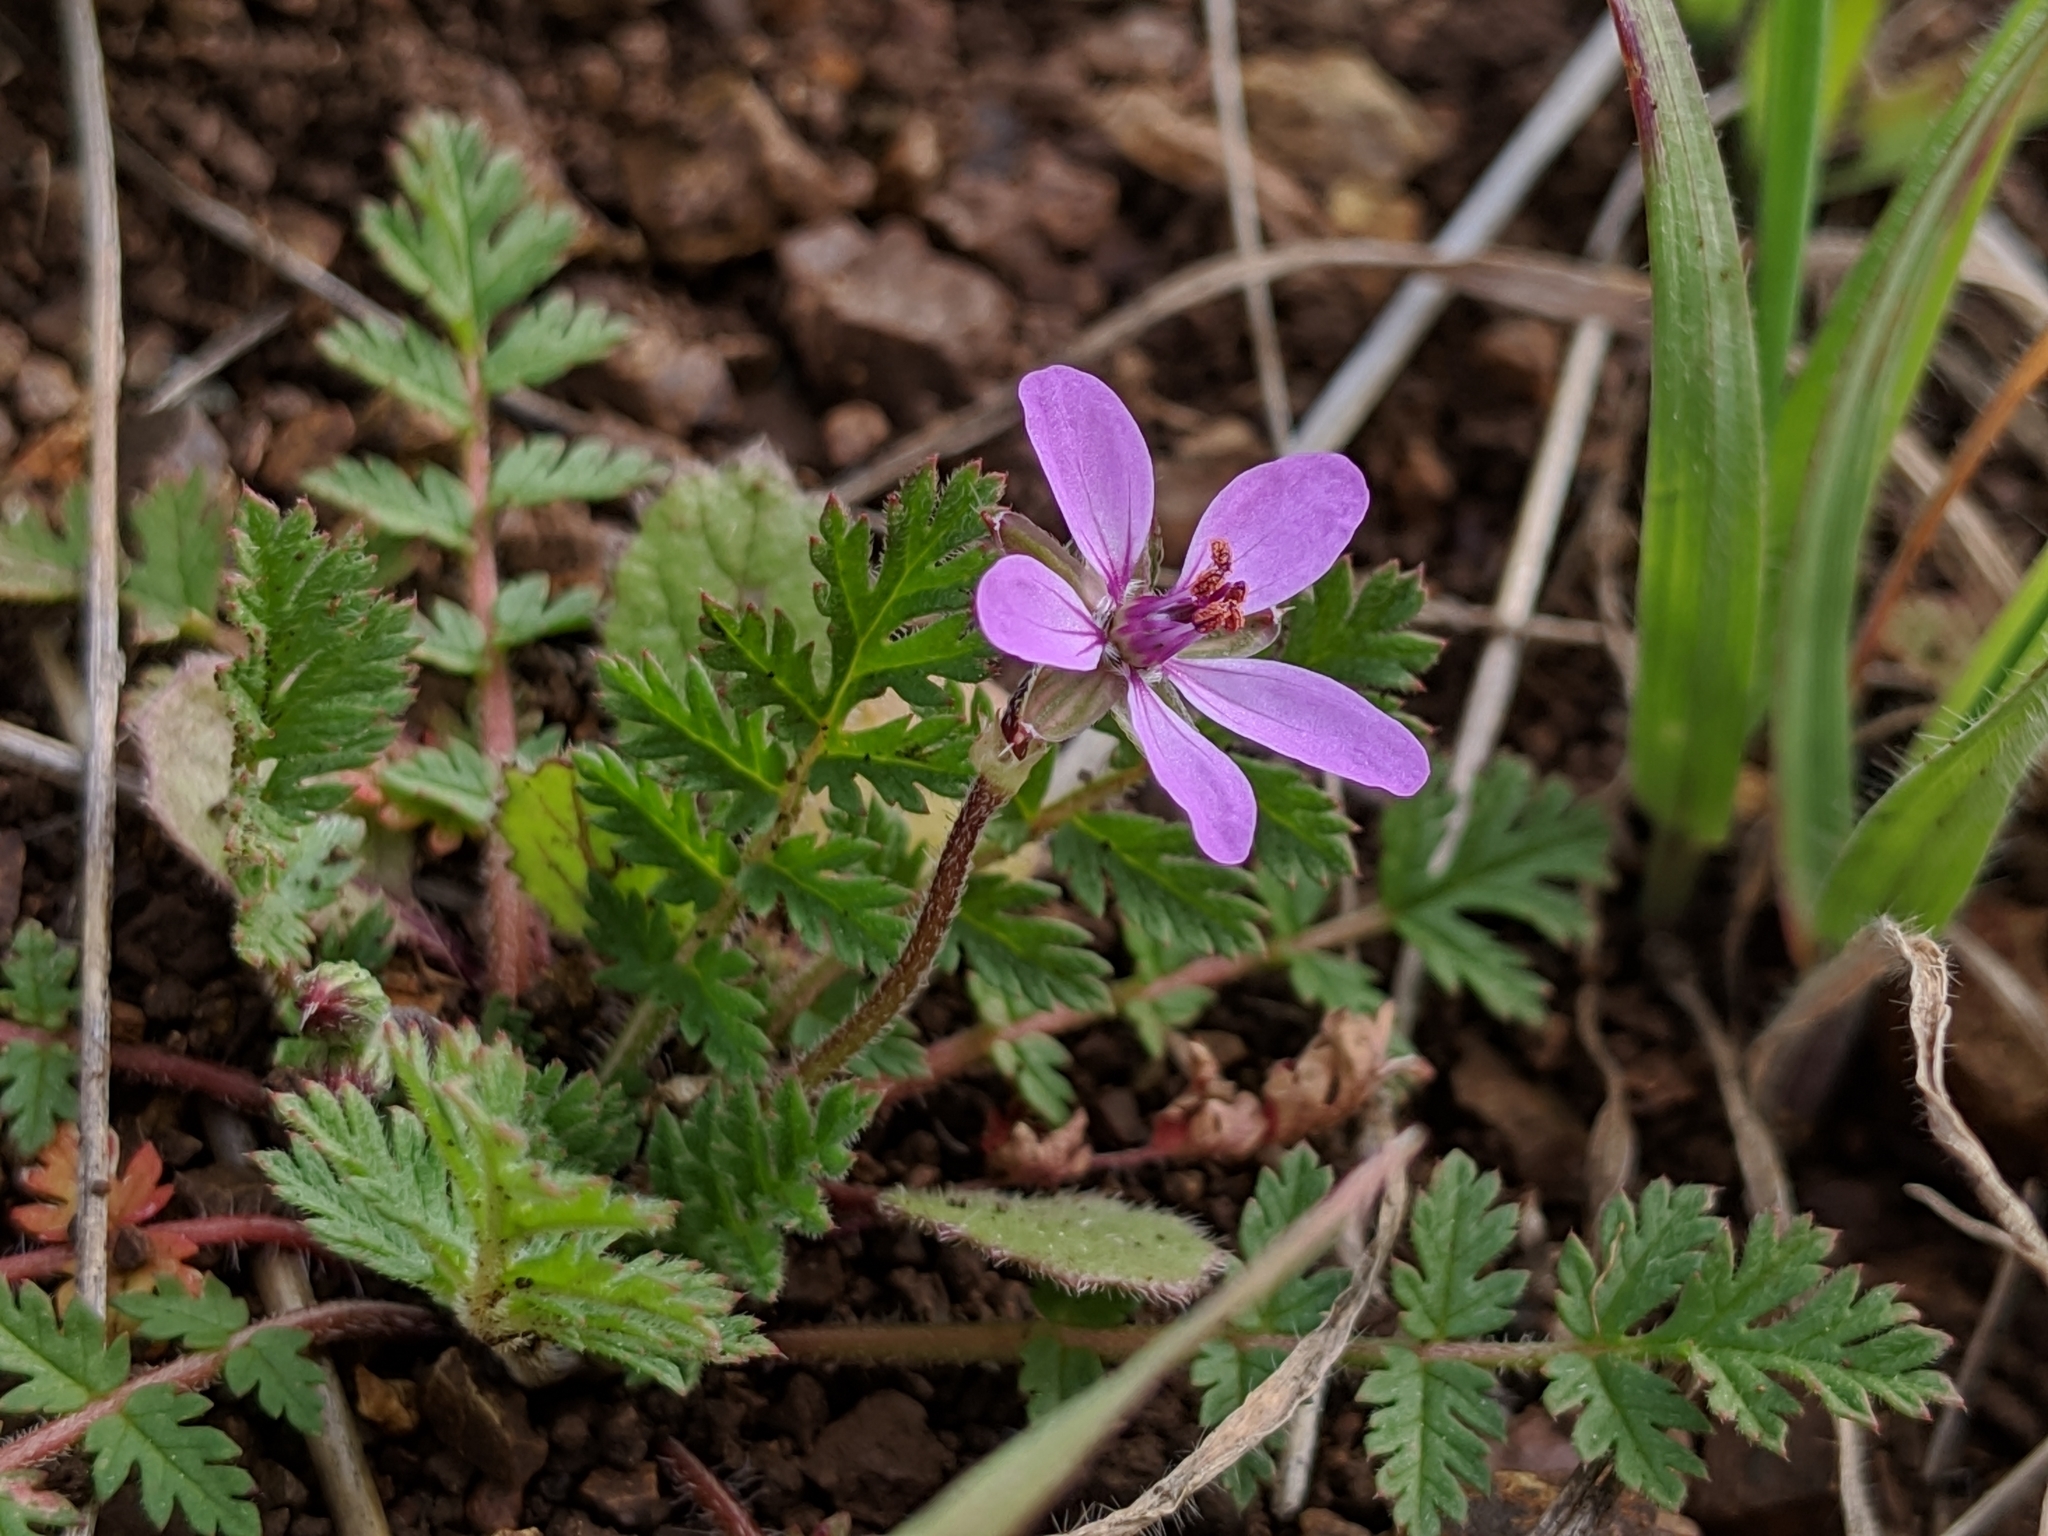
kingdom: Plantae
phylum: Tracheophyta
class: Magnoliopsida
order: Geraniales
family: Geraniaceae
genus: Erodium
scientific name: Erodium cicutarium
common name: Common stork's-bill
